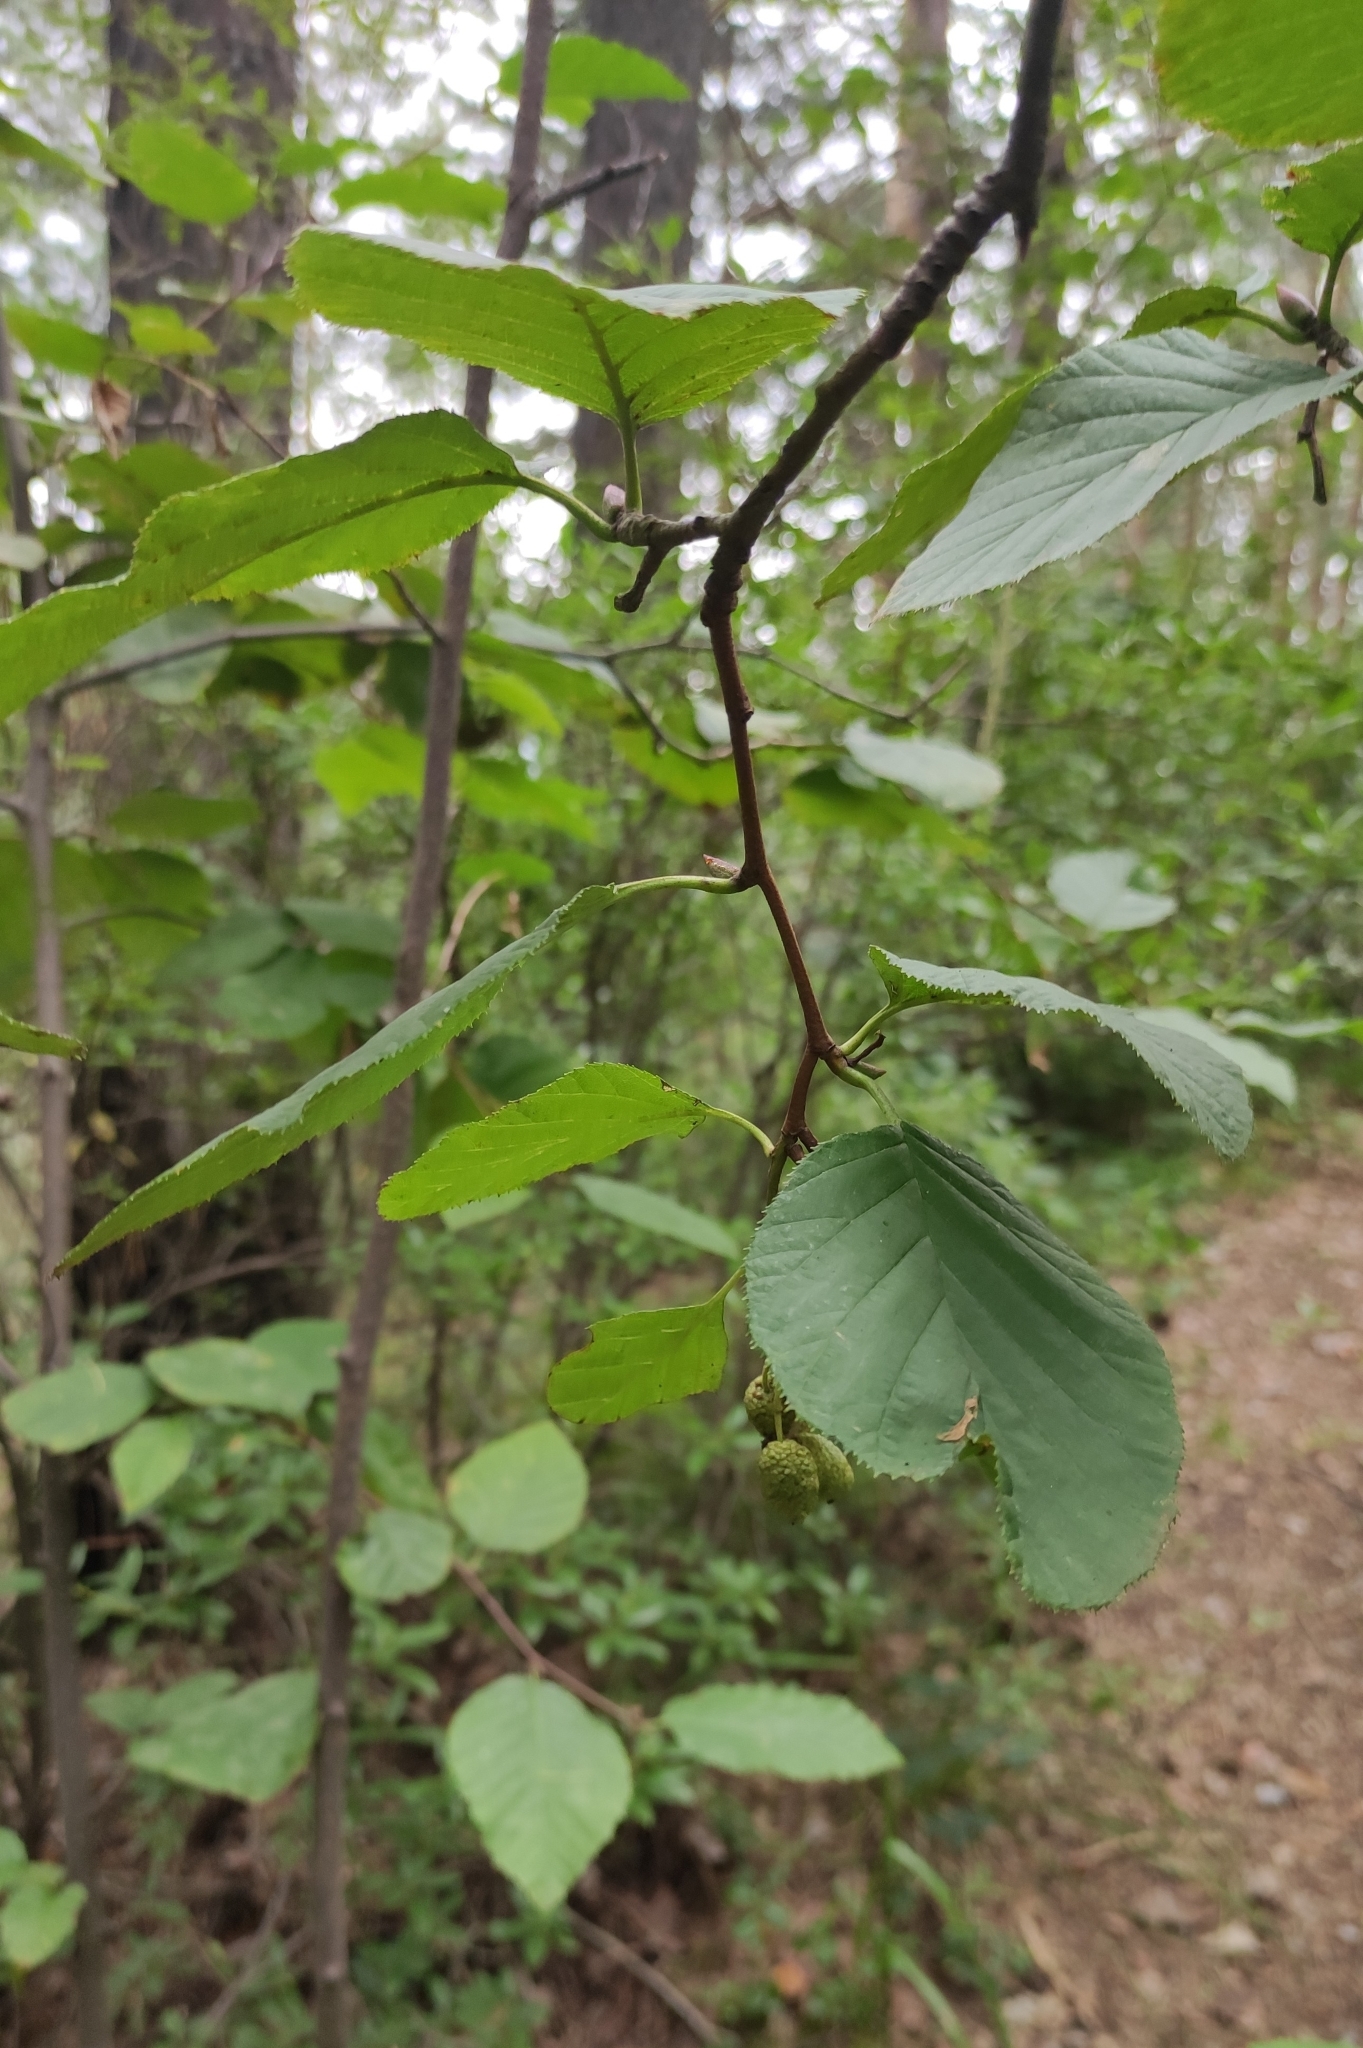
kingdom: Plantae
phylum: Tracheophyta
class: Magnoliopsida
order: Fagales
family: Betulaceae
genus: Alnus
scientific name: Alnus alnobetula
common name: Green alder
